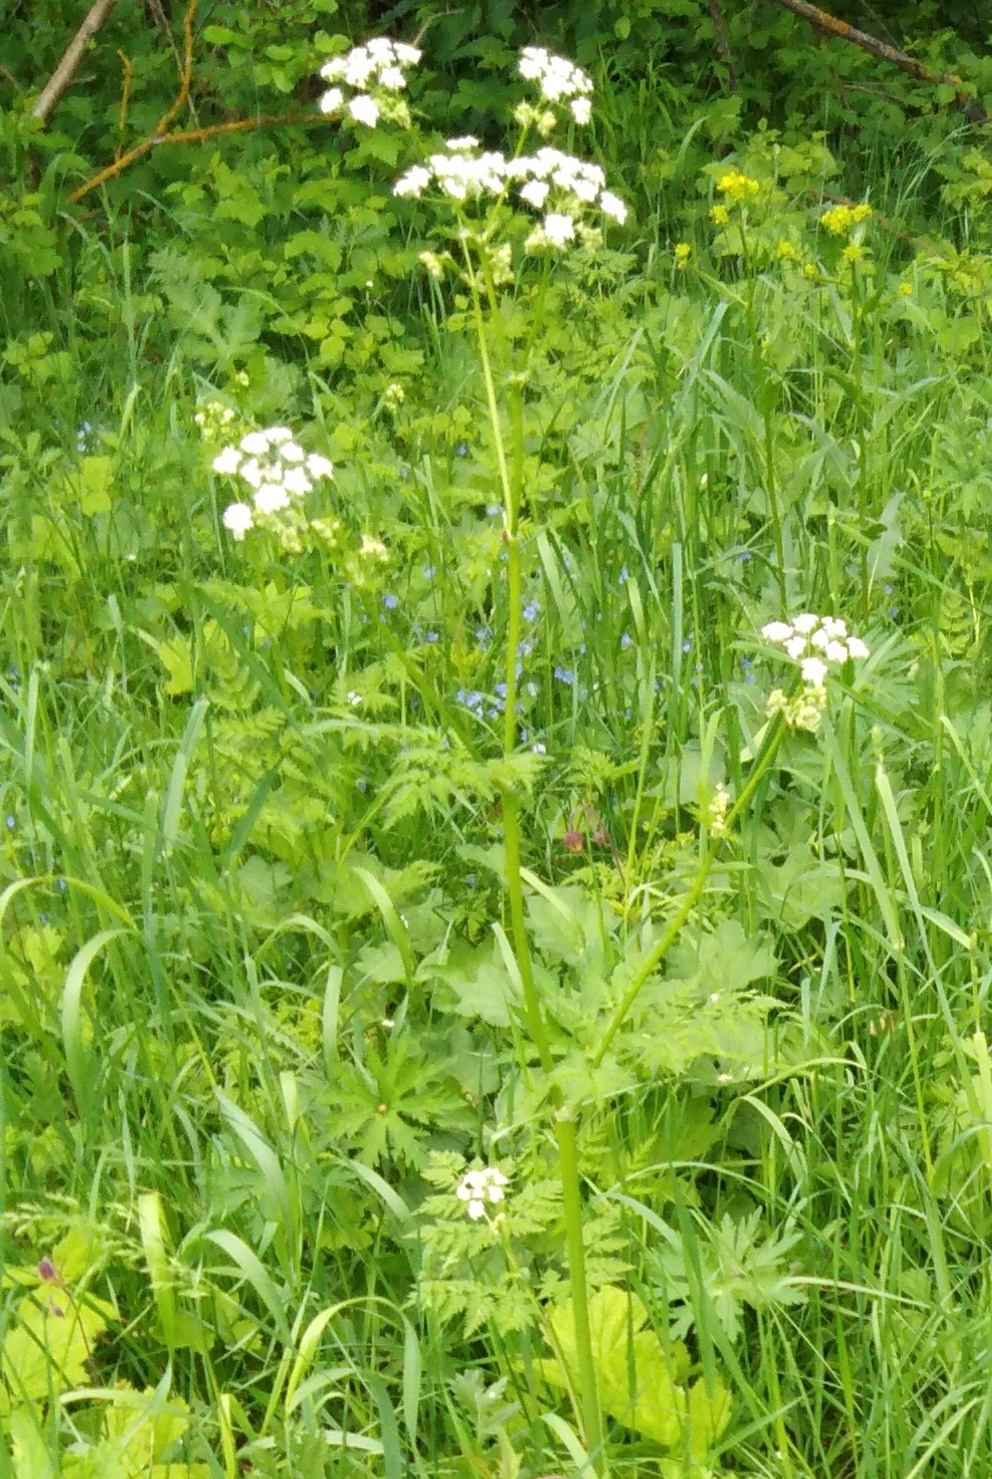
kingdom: Plantae
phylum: Tracheophyta
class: Magnoliopsida
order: Apiales
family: Apiaceae
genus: Anthriscus
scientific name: Anthriscus sylvestris
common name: Cow parsley
